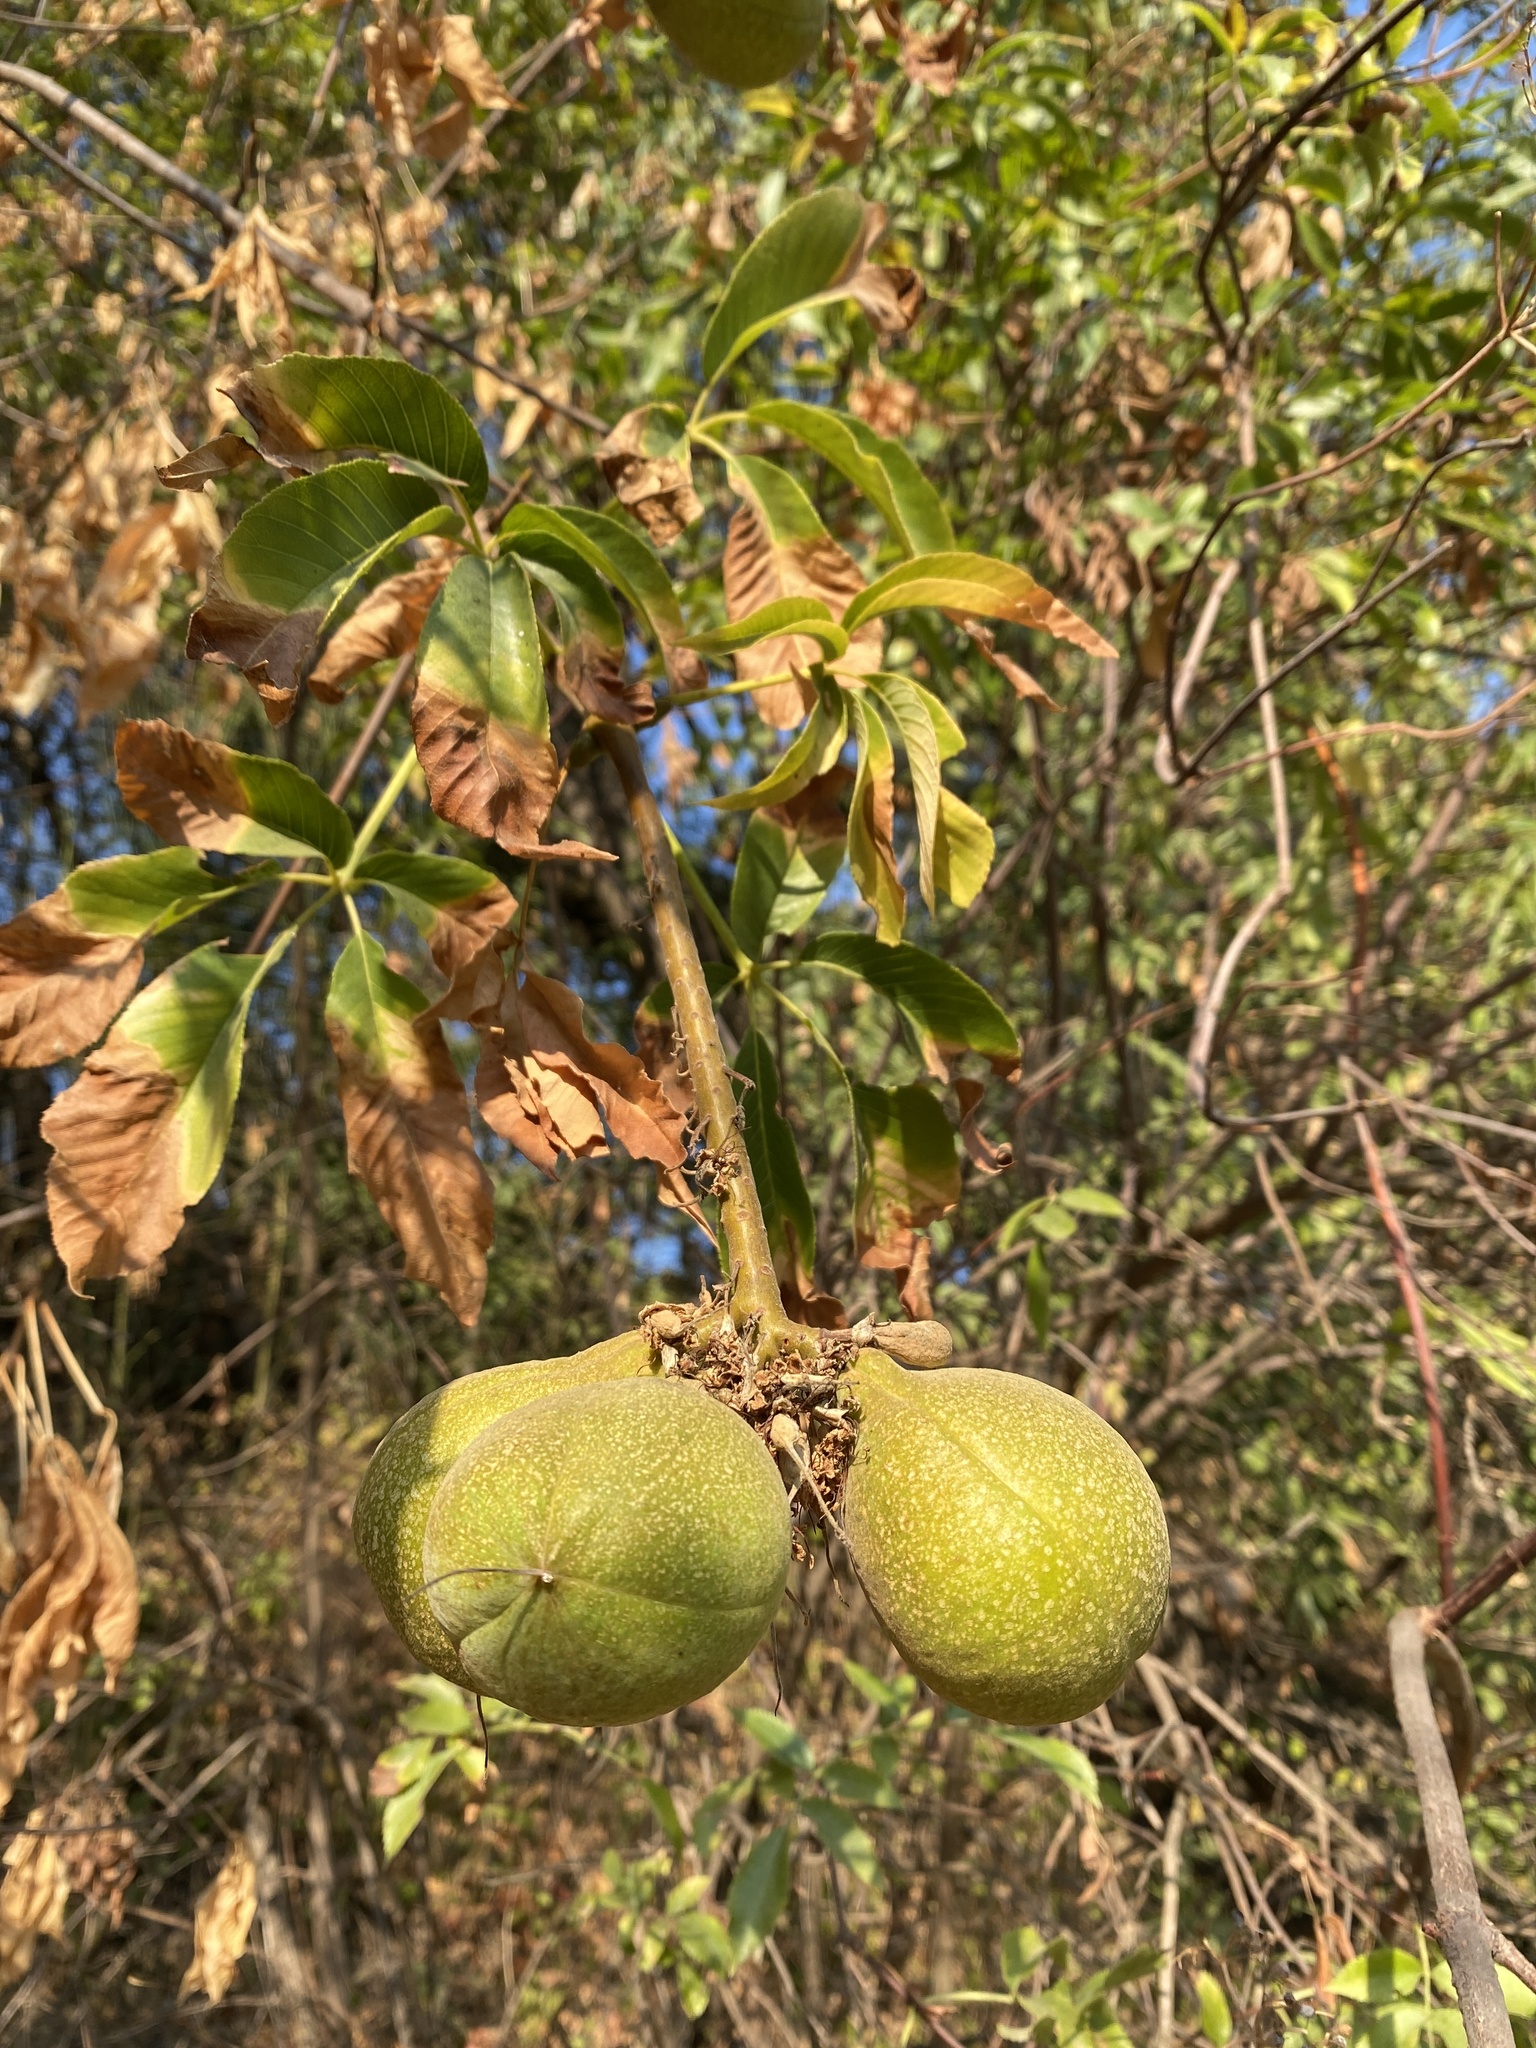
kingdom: Plantae
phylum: Tracheophyta
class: Magnoliopsida
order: Sapindales
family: Sapindaceae
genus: Aesculus
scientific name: Aesculus californica
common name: California buckeye
